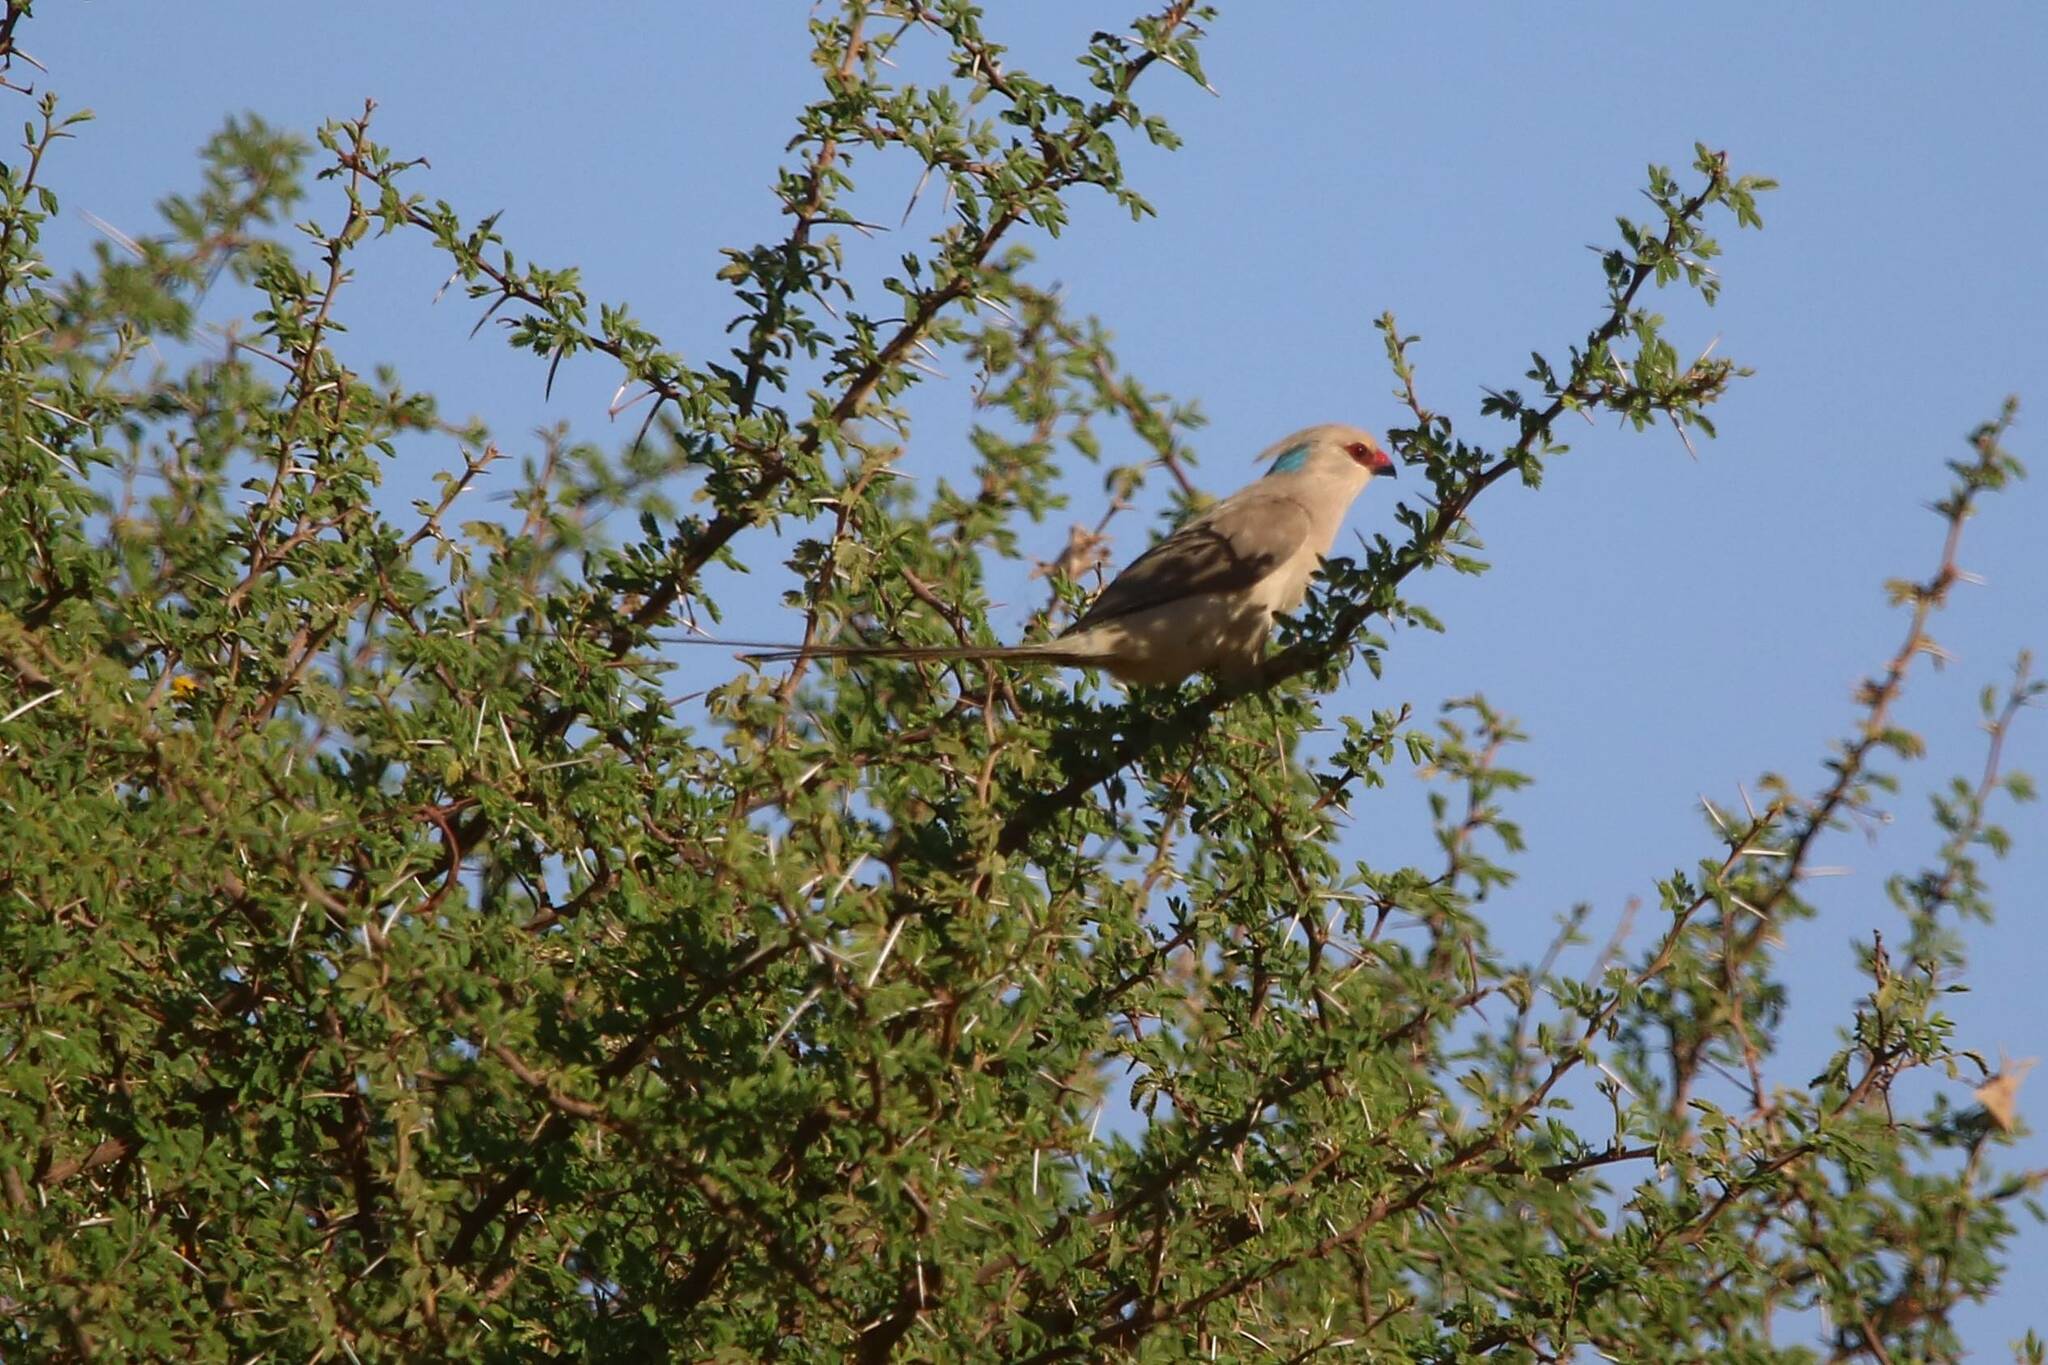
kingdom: Animalia
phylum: Chordata
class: Aves
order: Coliiformes
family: Coliidae
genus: Urocolius
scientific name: Urocolius macrourus
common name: Blue-naped mousebird
